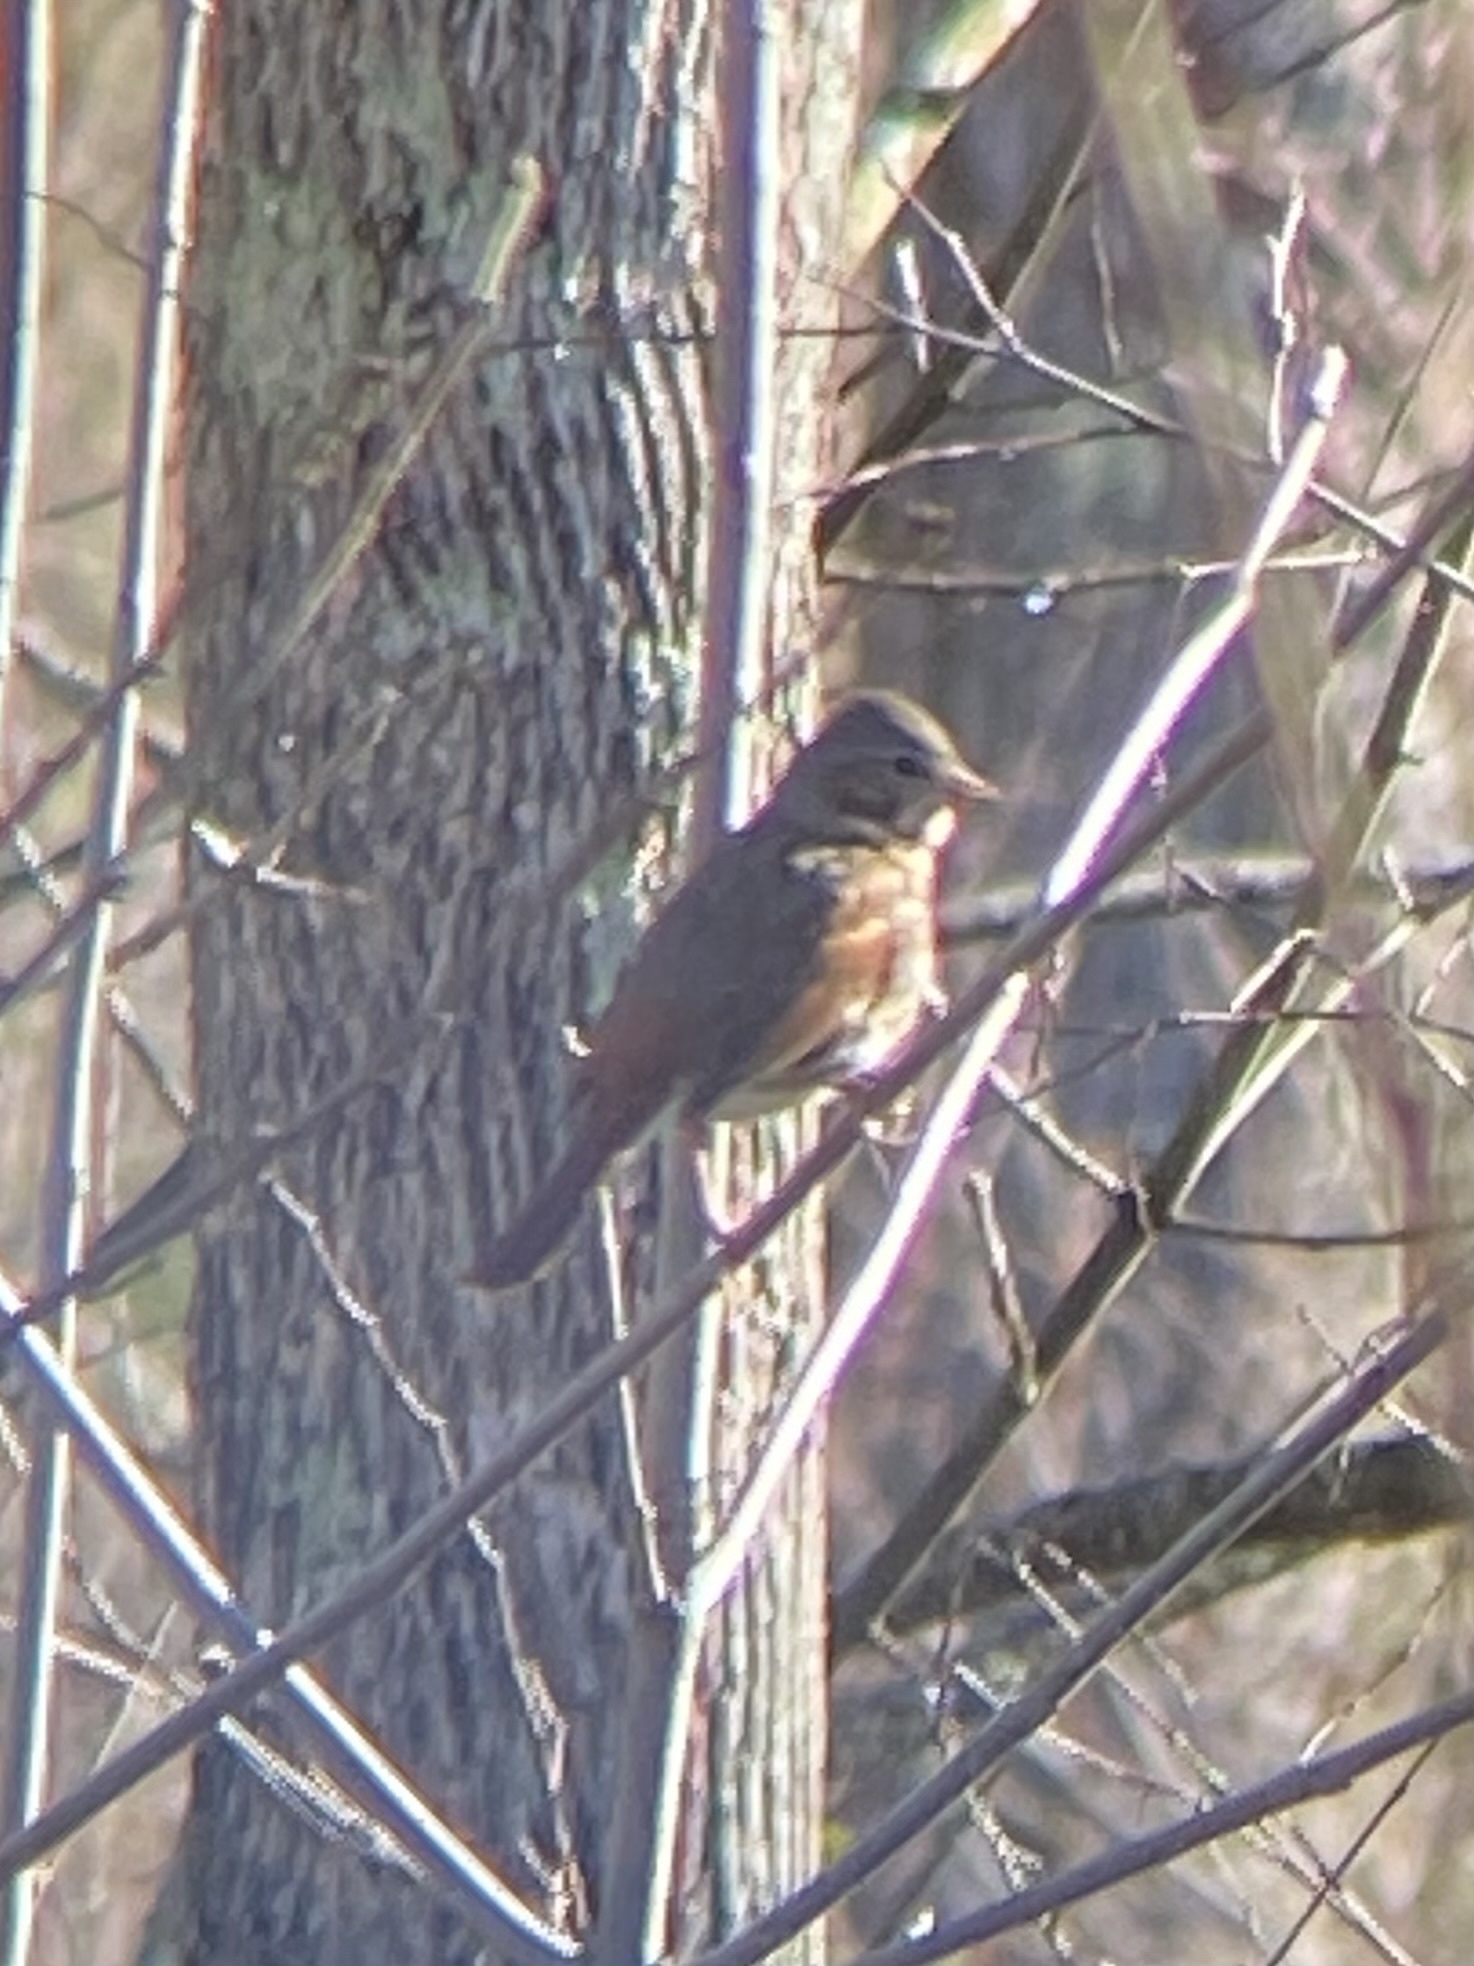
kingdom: Animalia
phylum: Chordata
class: Aves
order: Passeriformes
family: Passerellidae
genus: Passerella
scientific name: Passerella iliaca
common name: Fox sparrow
